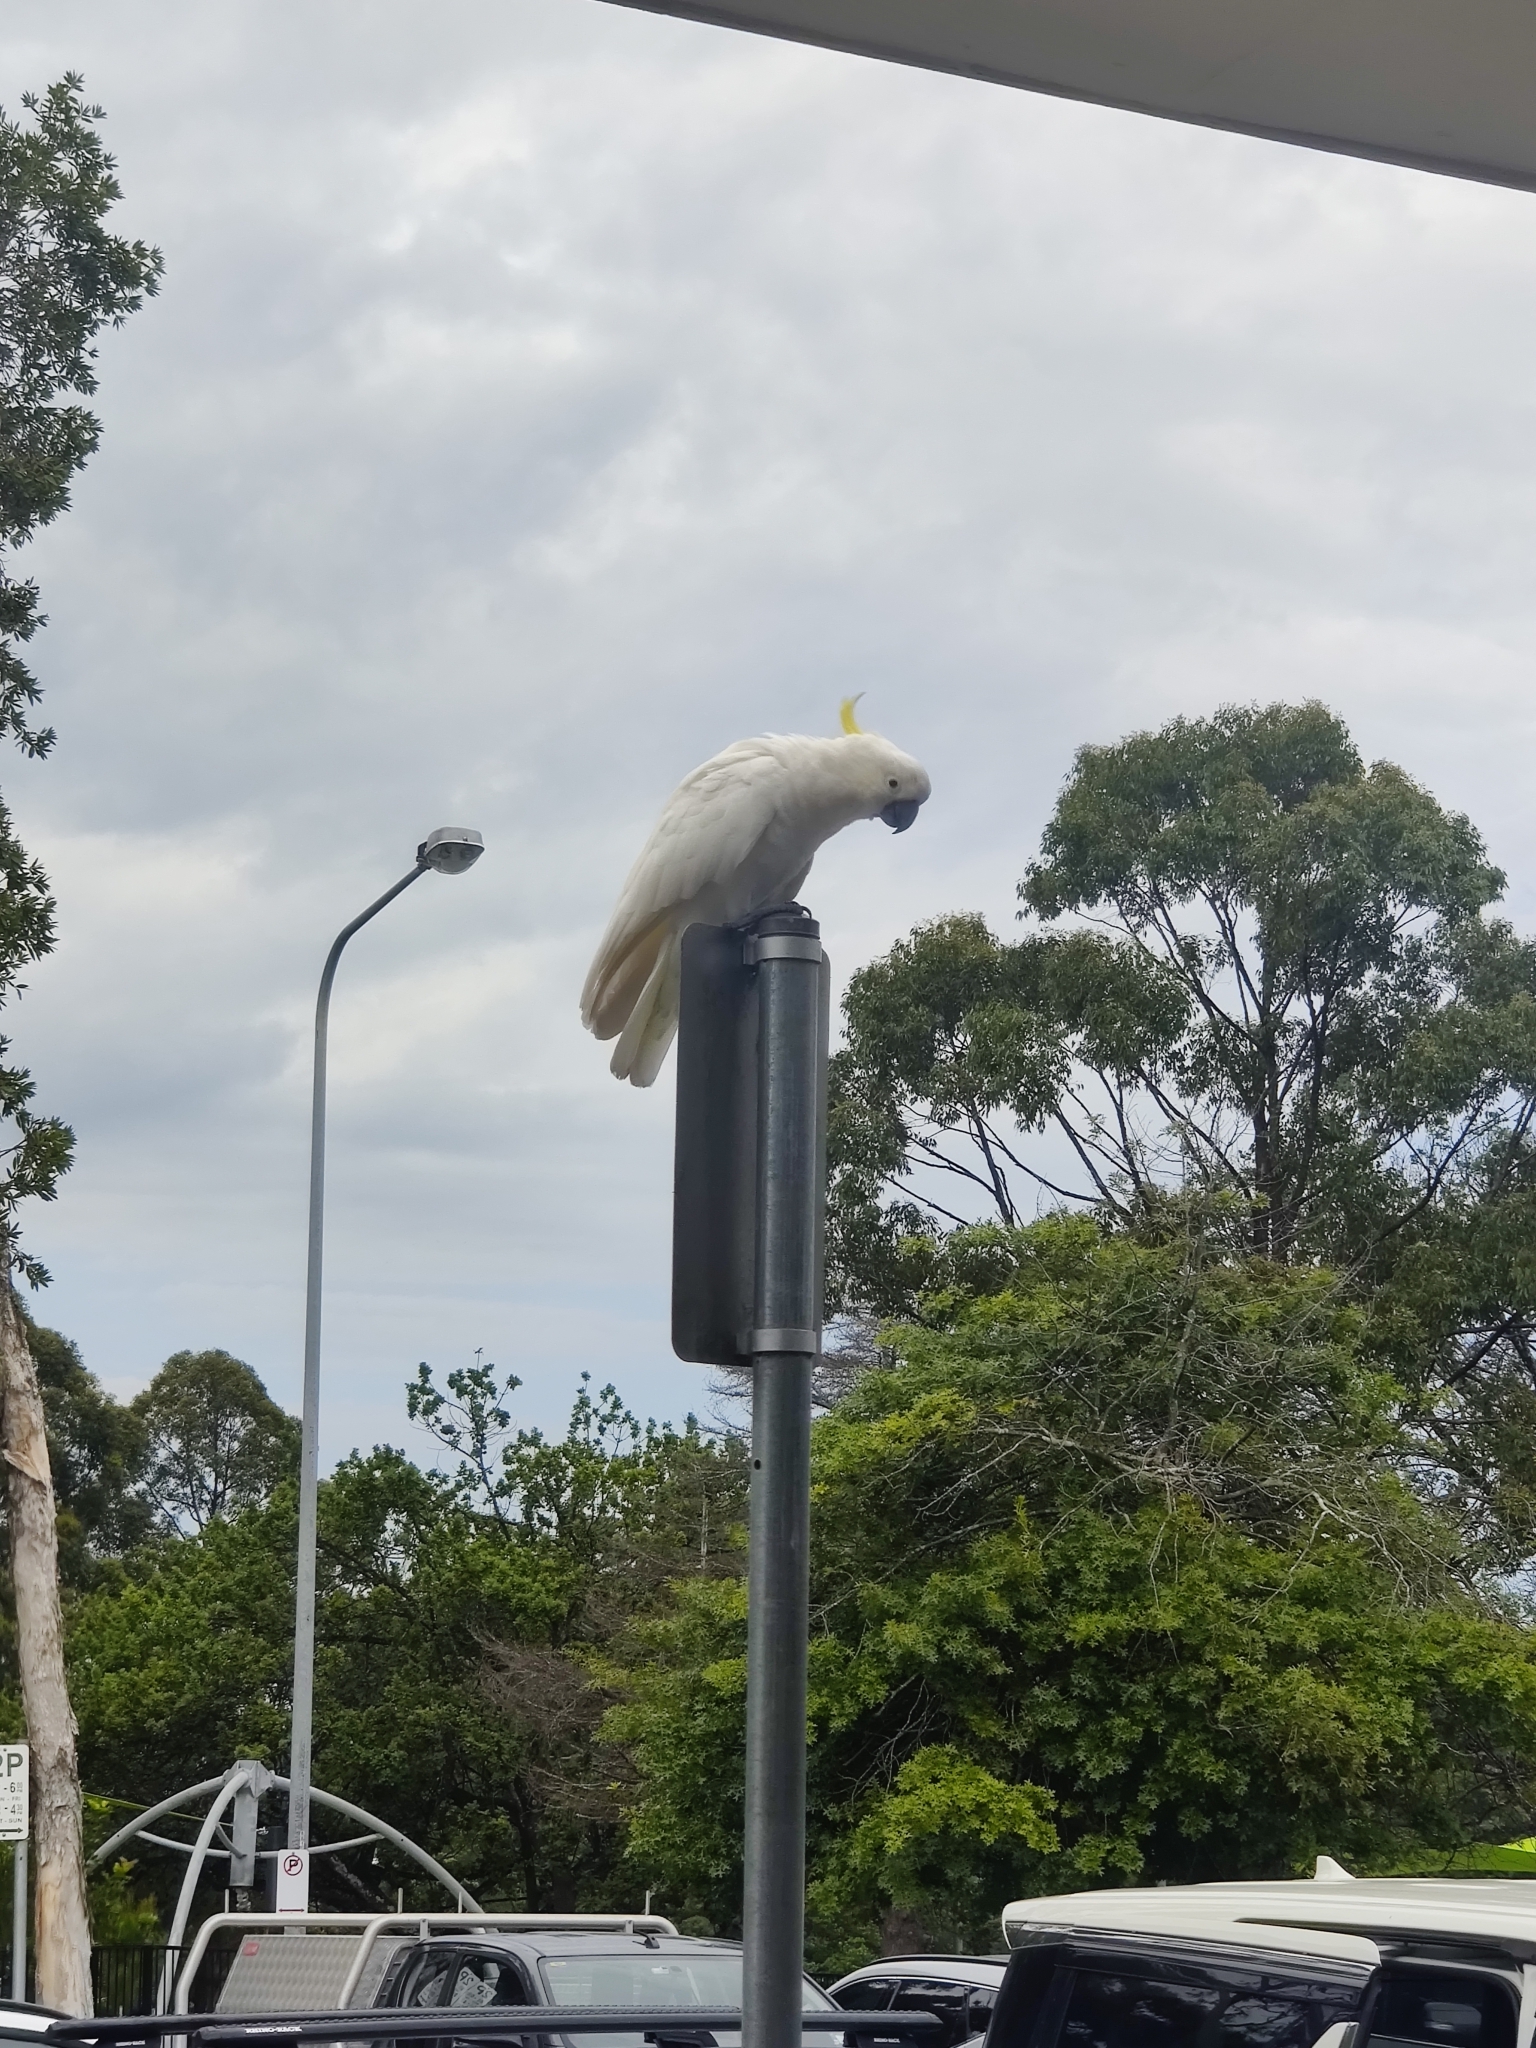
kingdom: Animalia
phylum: Chordata
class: Aves
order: Psittaciformes
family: Psittacidae
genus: Cacatua
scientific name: Cacatua galerita
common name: Sulphur-crested cockatoo
